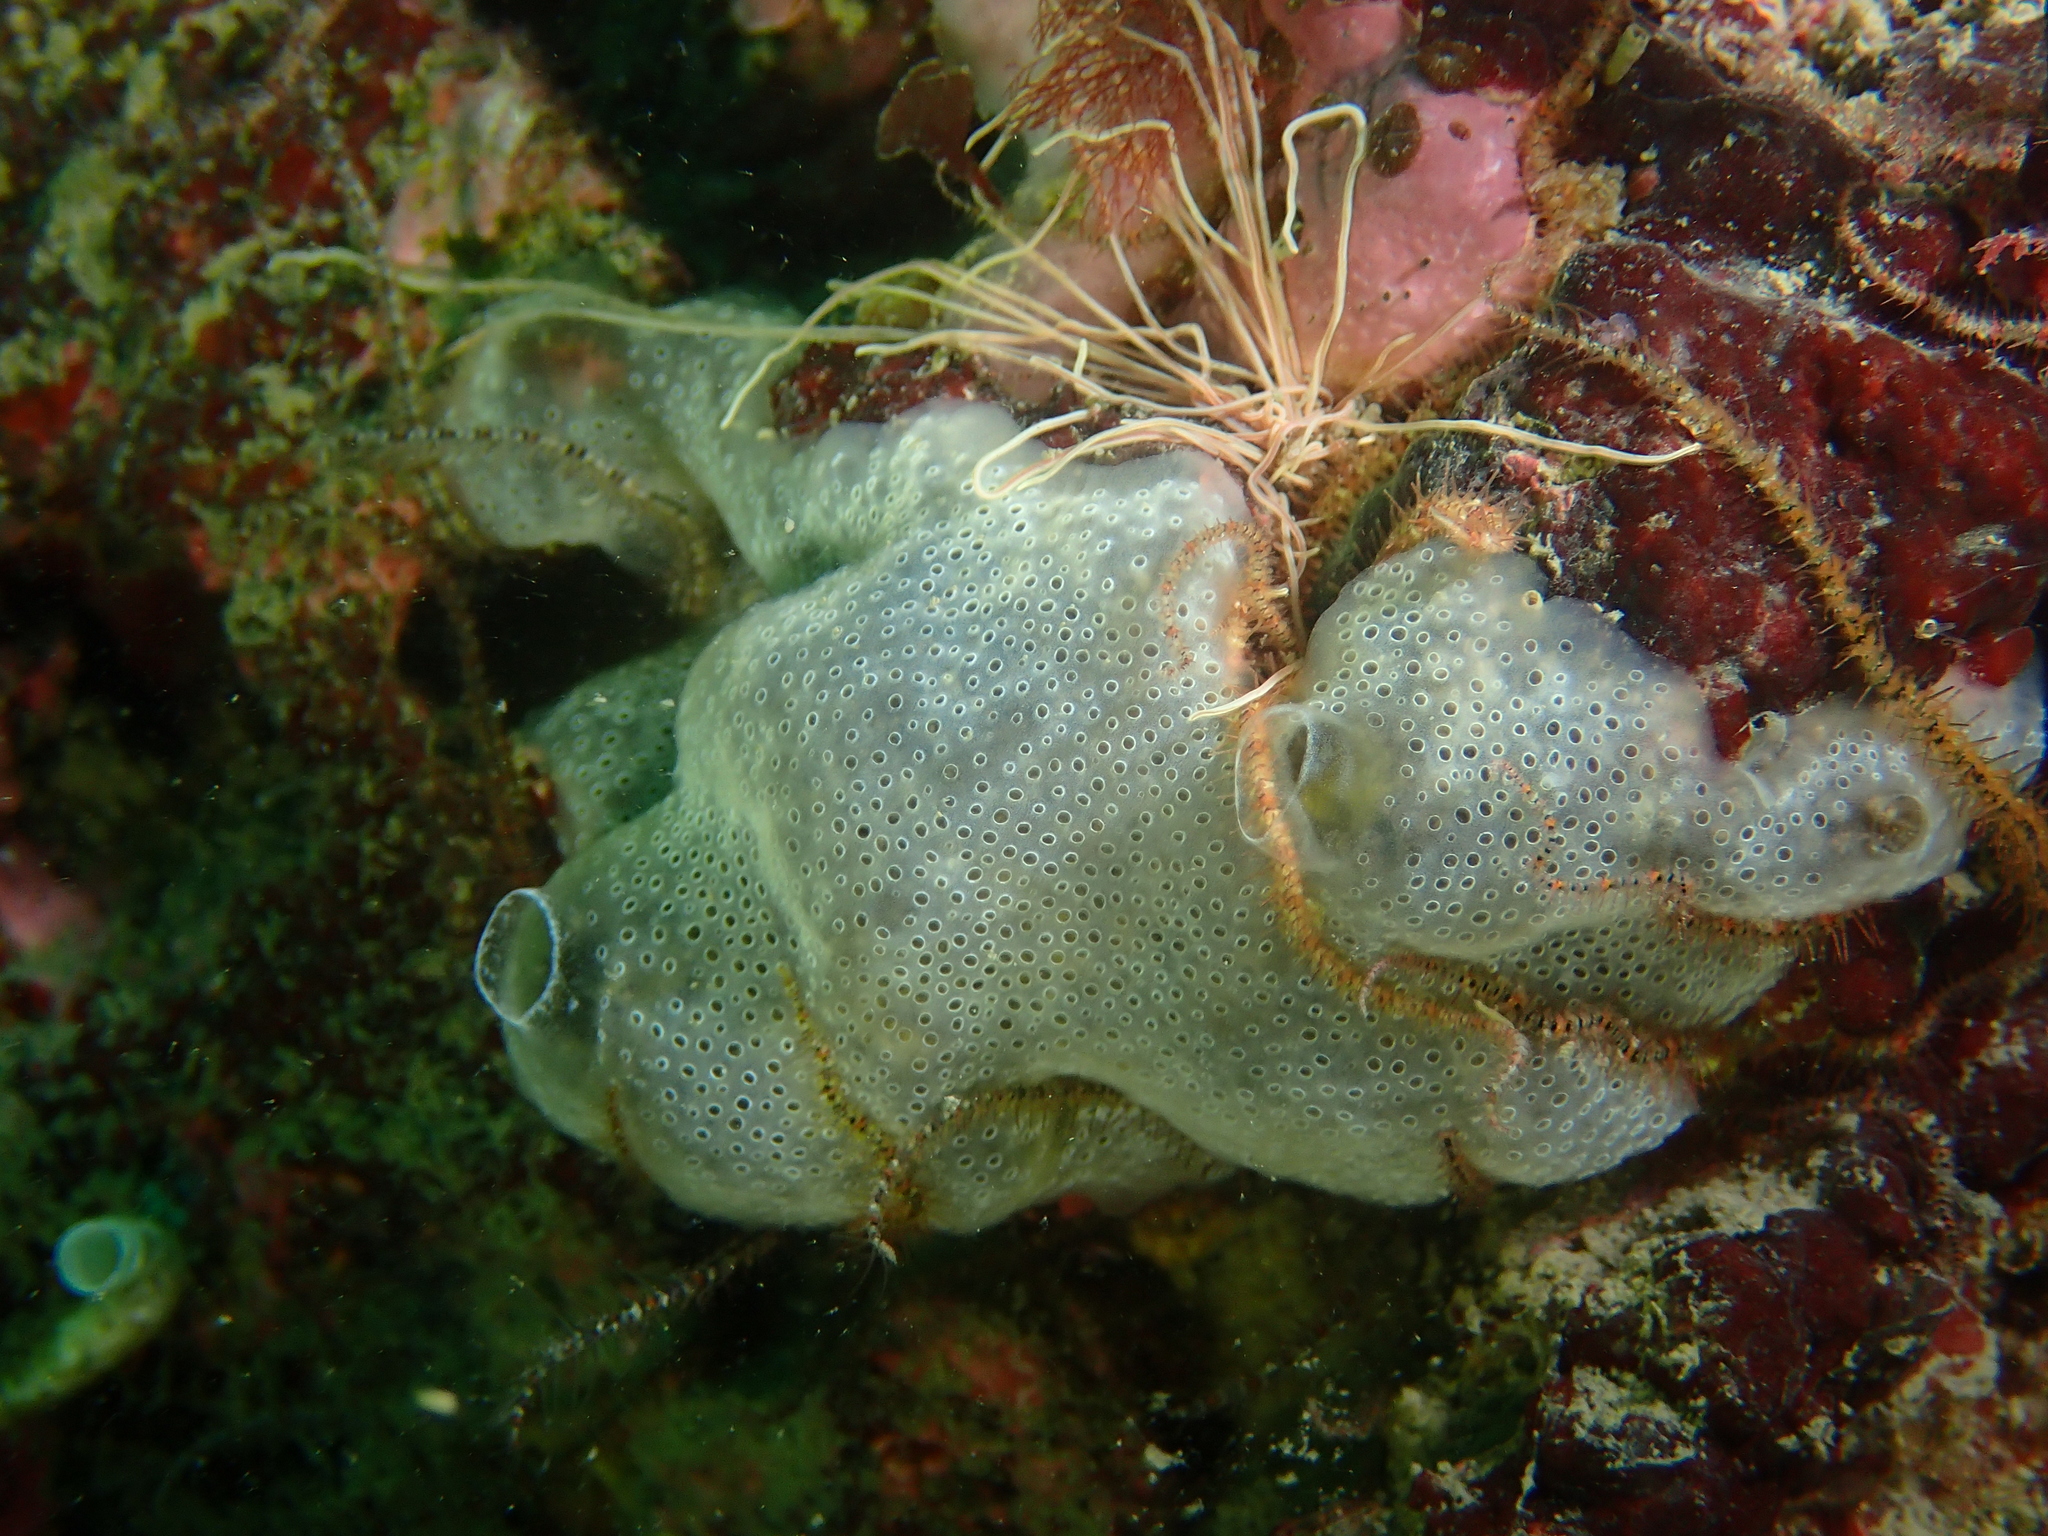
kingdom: Animalia
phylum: Chordata
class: Ascidiacea
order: Aplousobranchia
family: Didemnidae
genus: Diplosoma
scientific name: Diplosoma spongiforme
